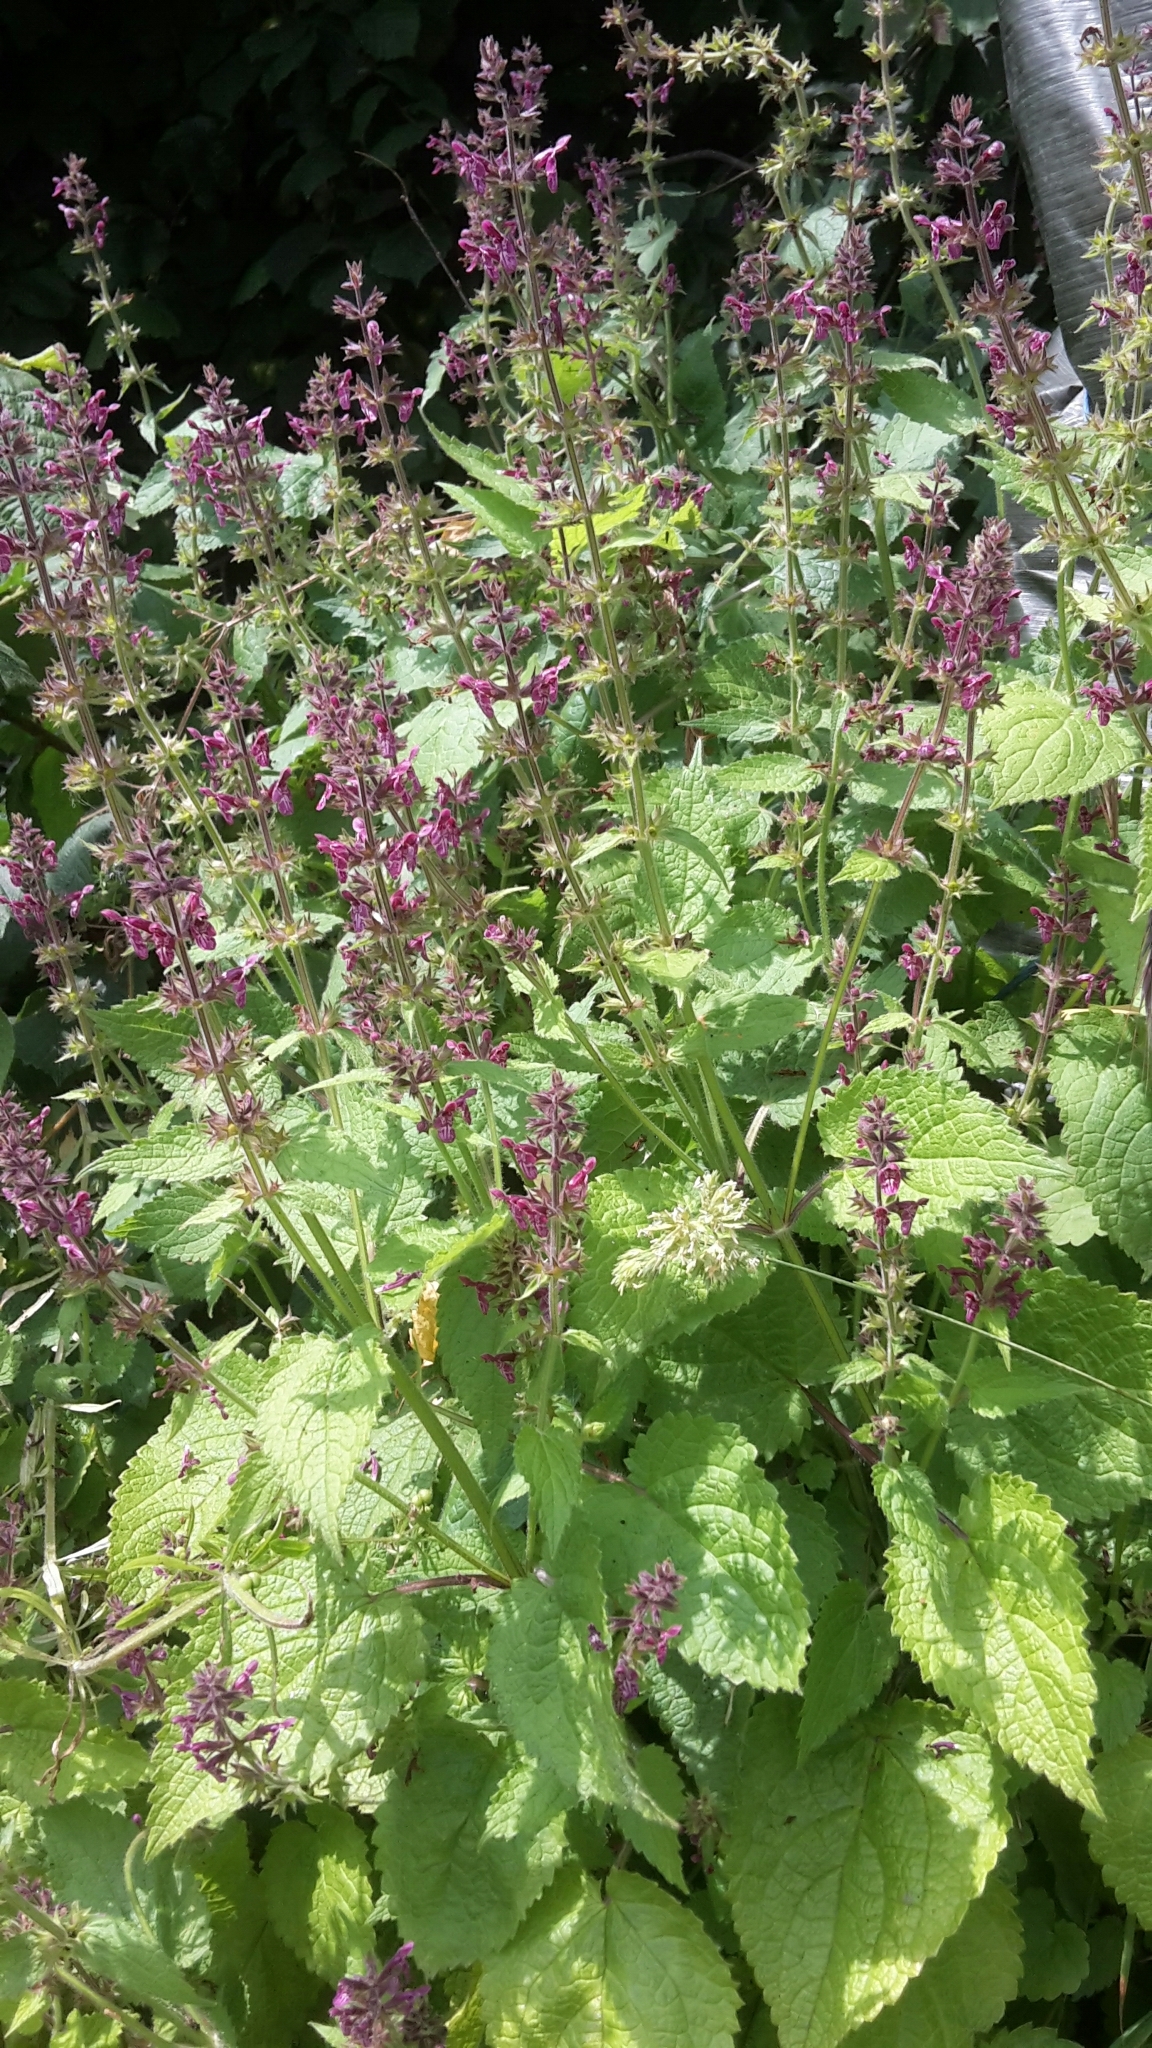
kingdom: Plantae
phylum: Tracheophyta
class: Magnoliopsida
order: Lamiales
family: Lamiaceae
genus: Stachys
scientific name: Stachys sylvatica
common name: Hedge woundwort
